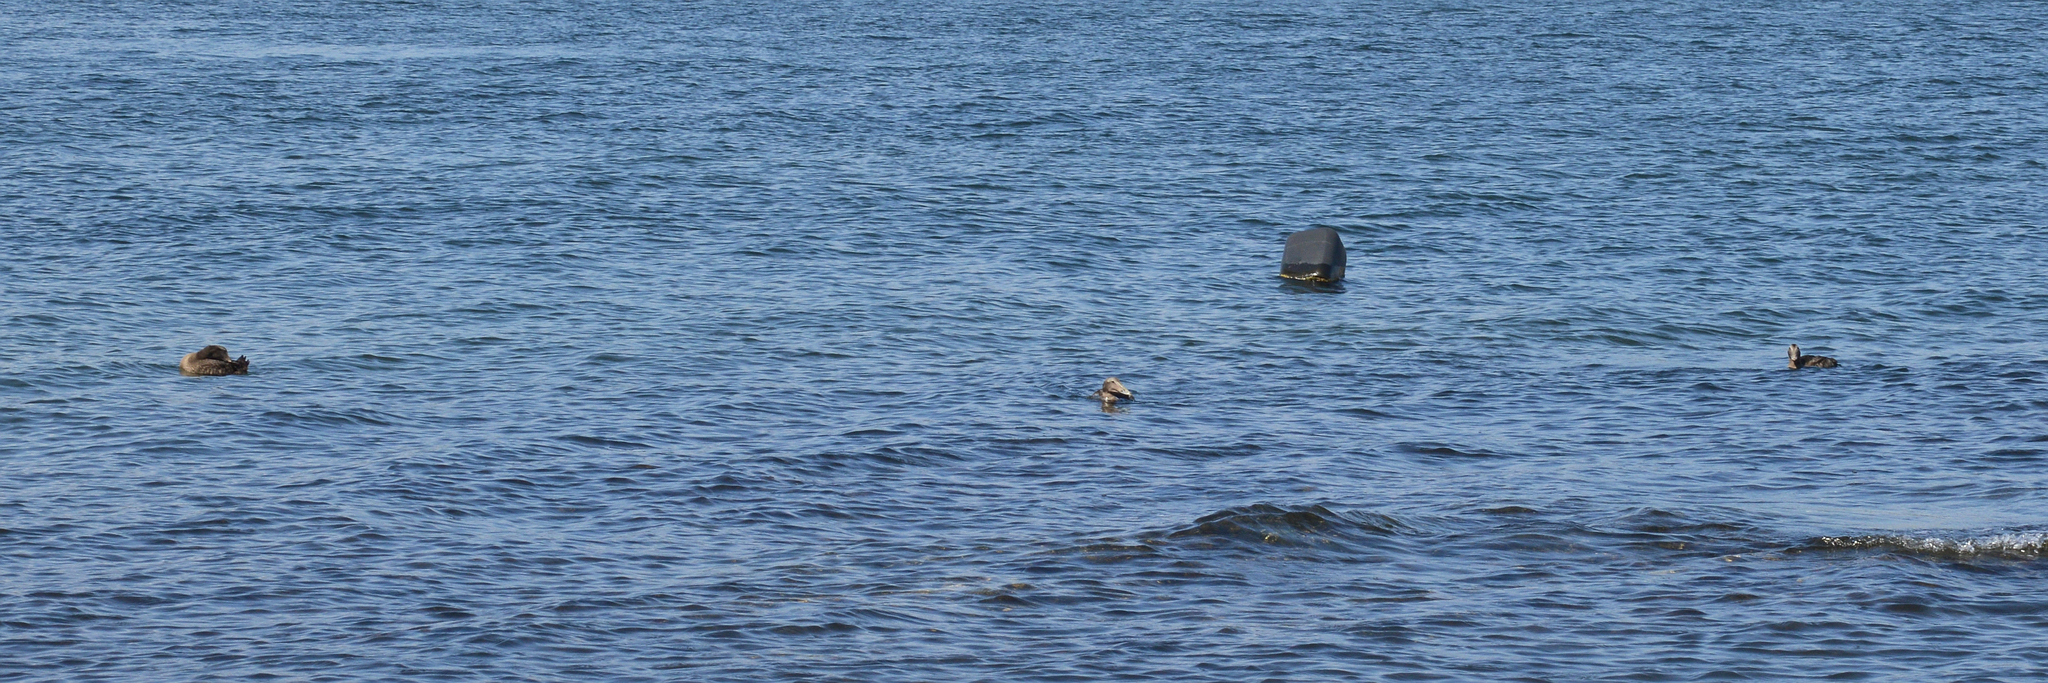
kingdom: Animalia
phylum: Chordata
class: Aves
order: Anseriformes
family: Anatidae
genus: Somateria
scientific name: Somateria mollissima
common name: Common eider
